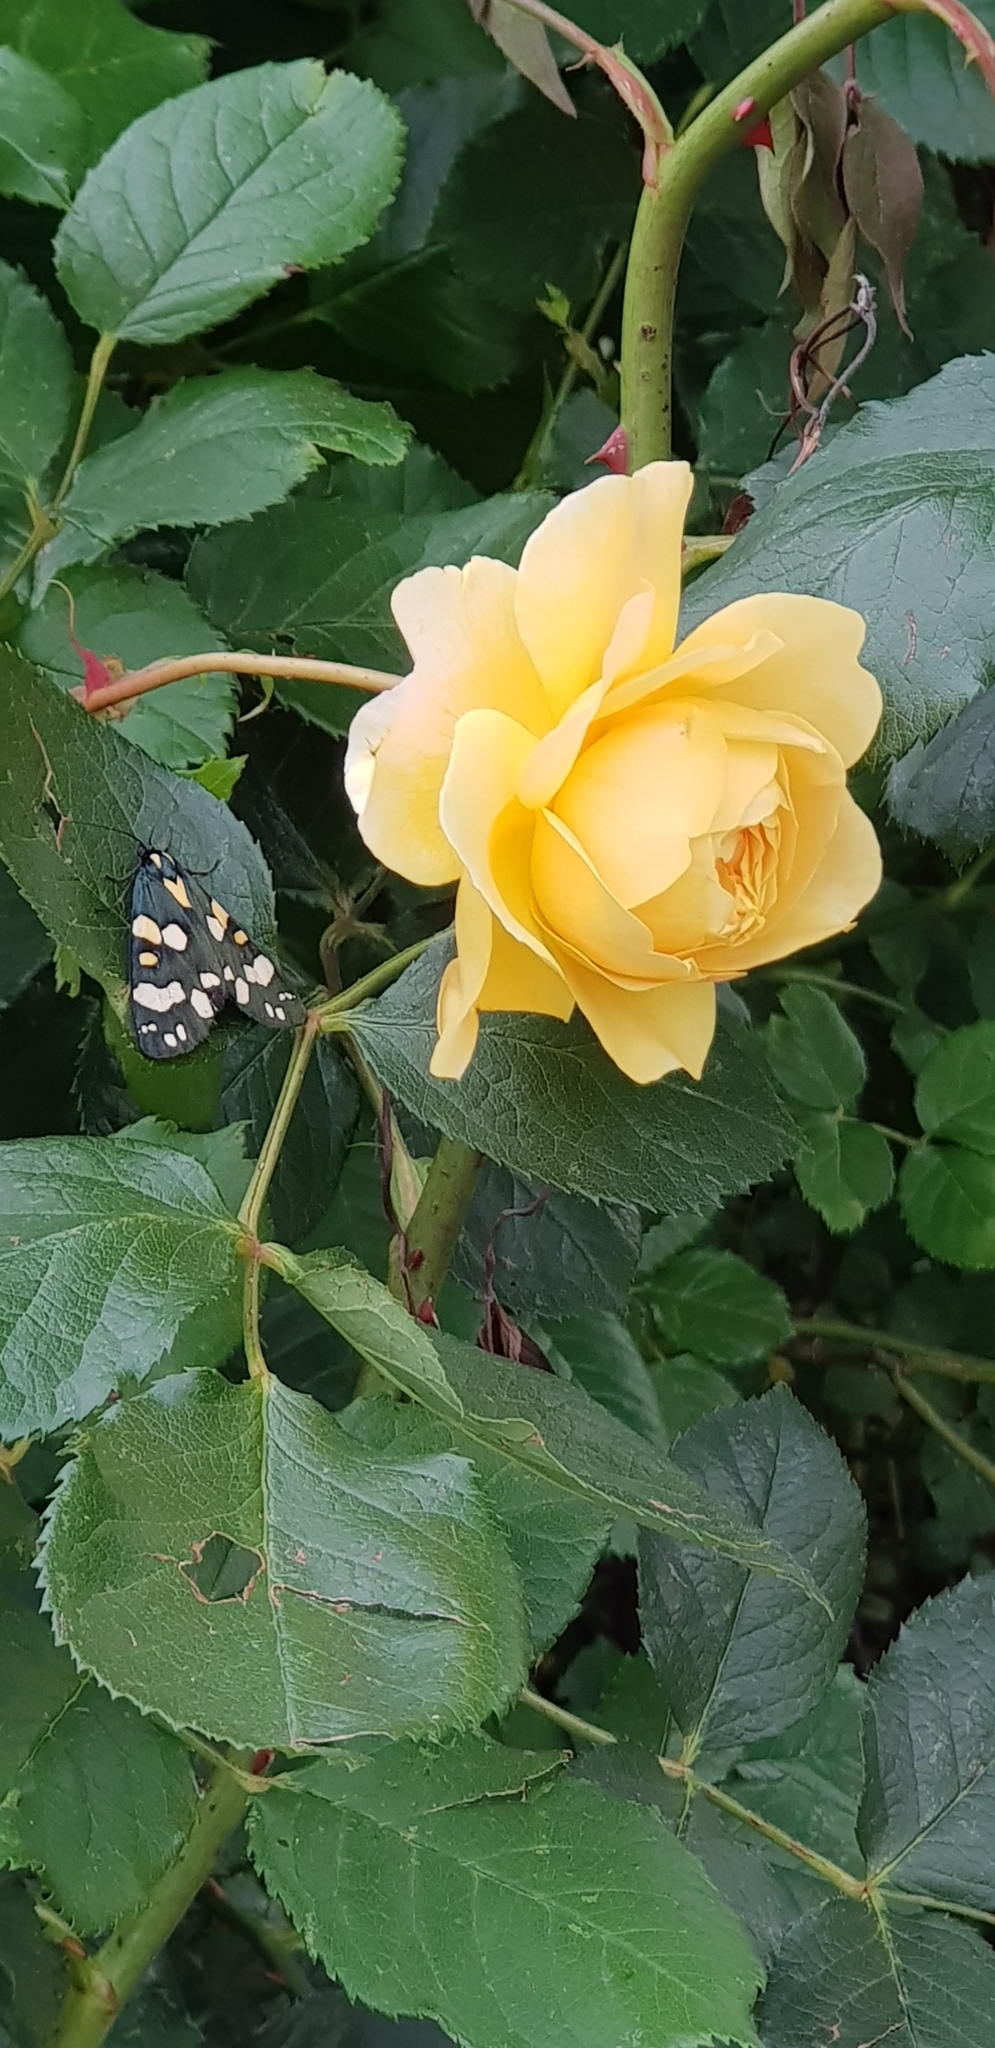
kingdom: Animalia
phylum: Arthropoda
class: Insecta
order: Lepidoptera
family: Erebidae
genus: Callimorpha
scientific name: Callimorpha dominula
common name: Scarlet tiger
